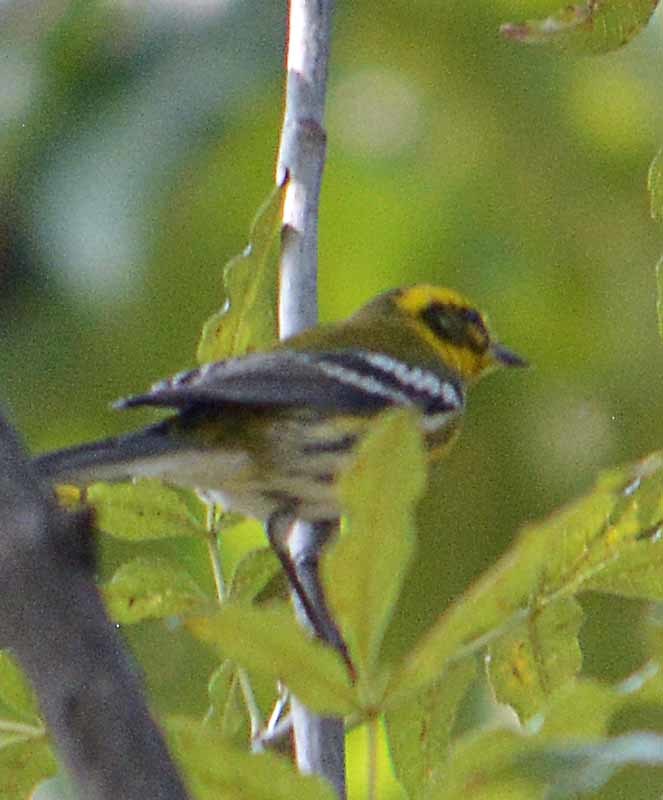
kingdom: Animalia
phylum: Chordata
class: Aves
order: Passeriformes
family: Parulidae
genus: Setophaga
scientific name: Setophaga townsendi
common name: Townsend's warbler
